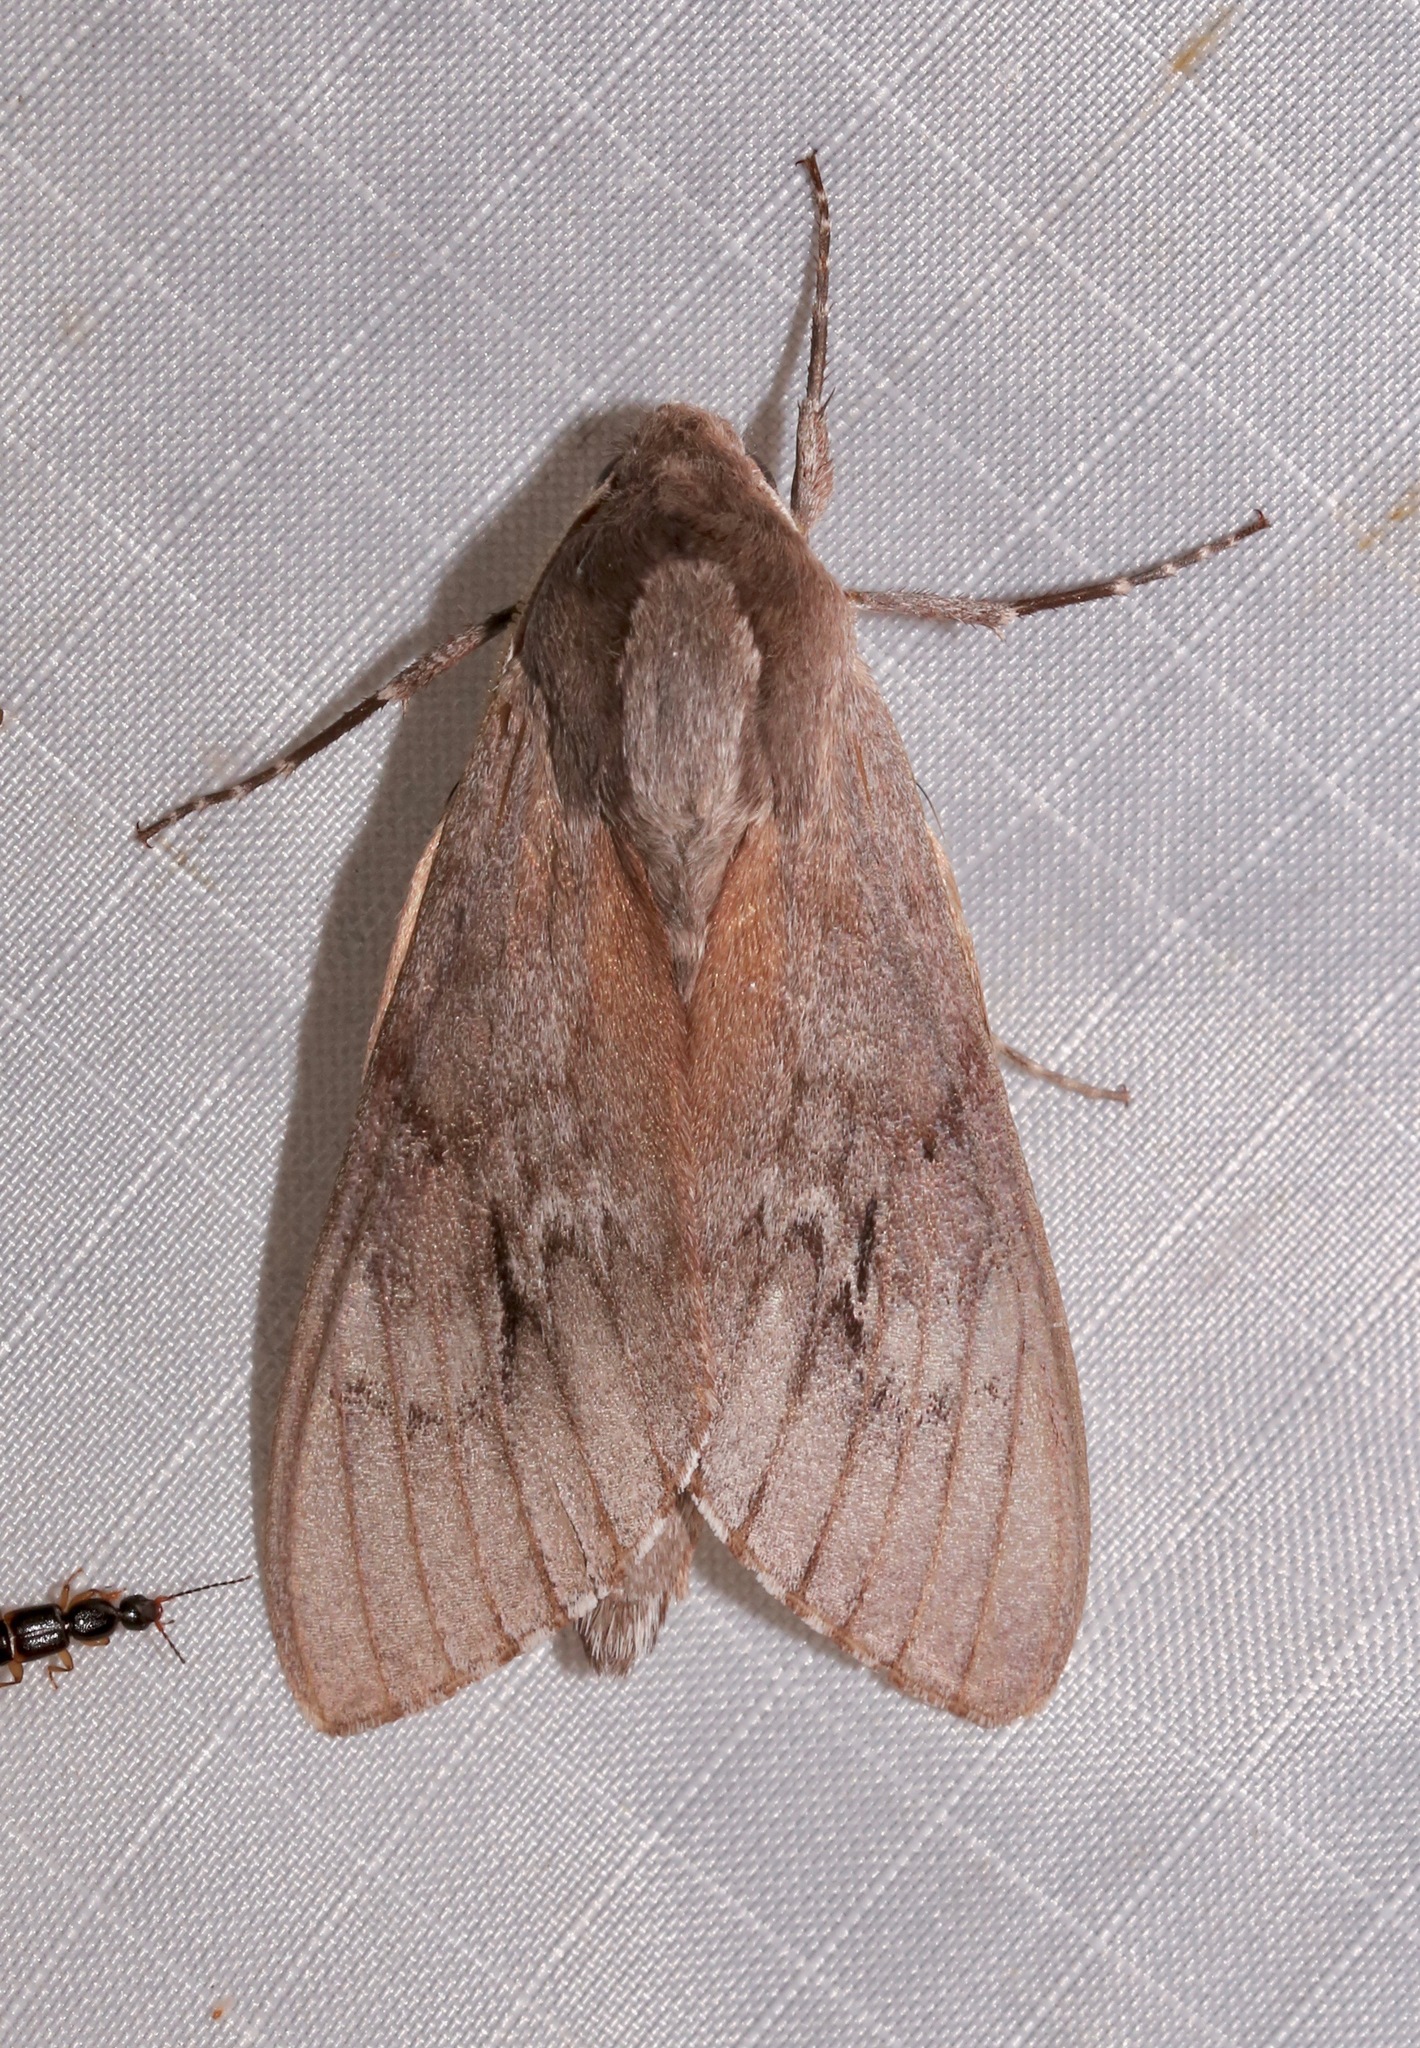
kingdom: Animalia
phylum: Arthropoda
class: Insecta
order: Lepidoptera
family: Sphingidae
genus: Lapara
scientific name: Lapara coniferarum
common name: Southern pine sphinx
